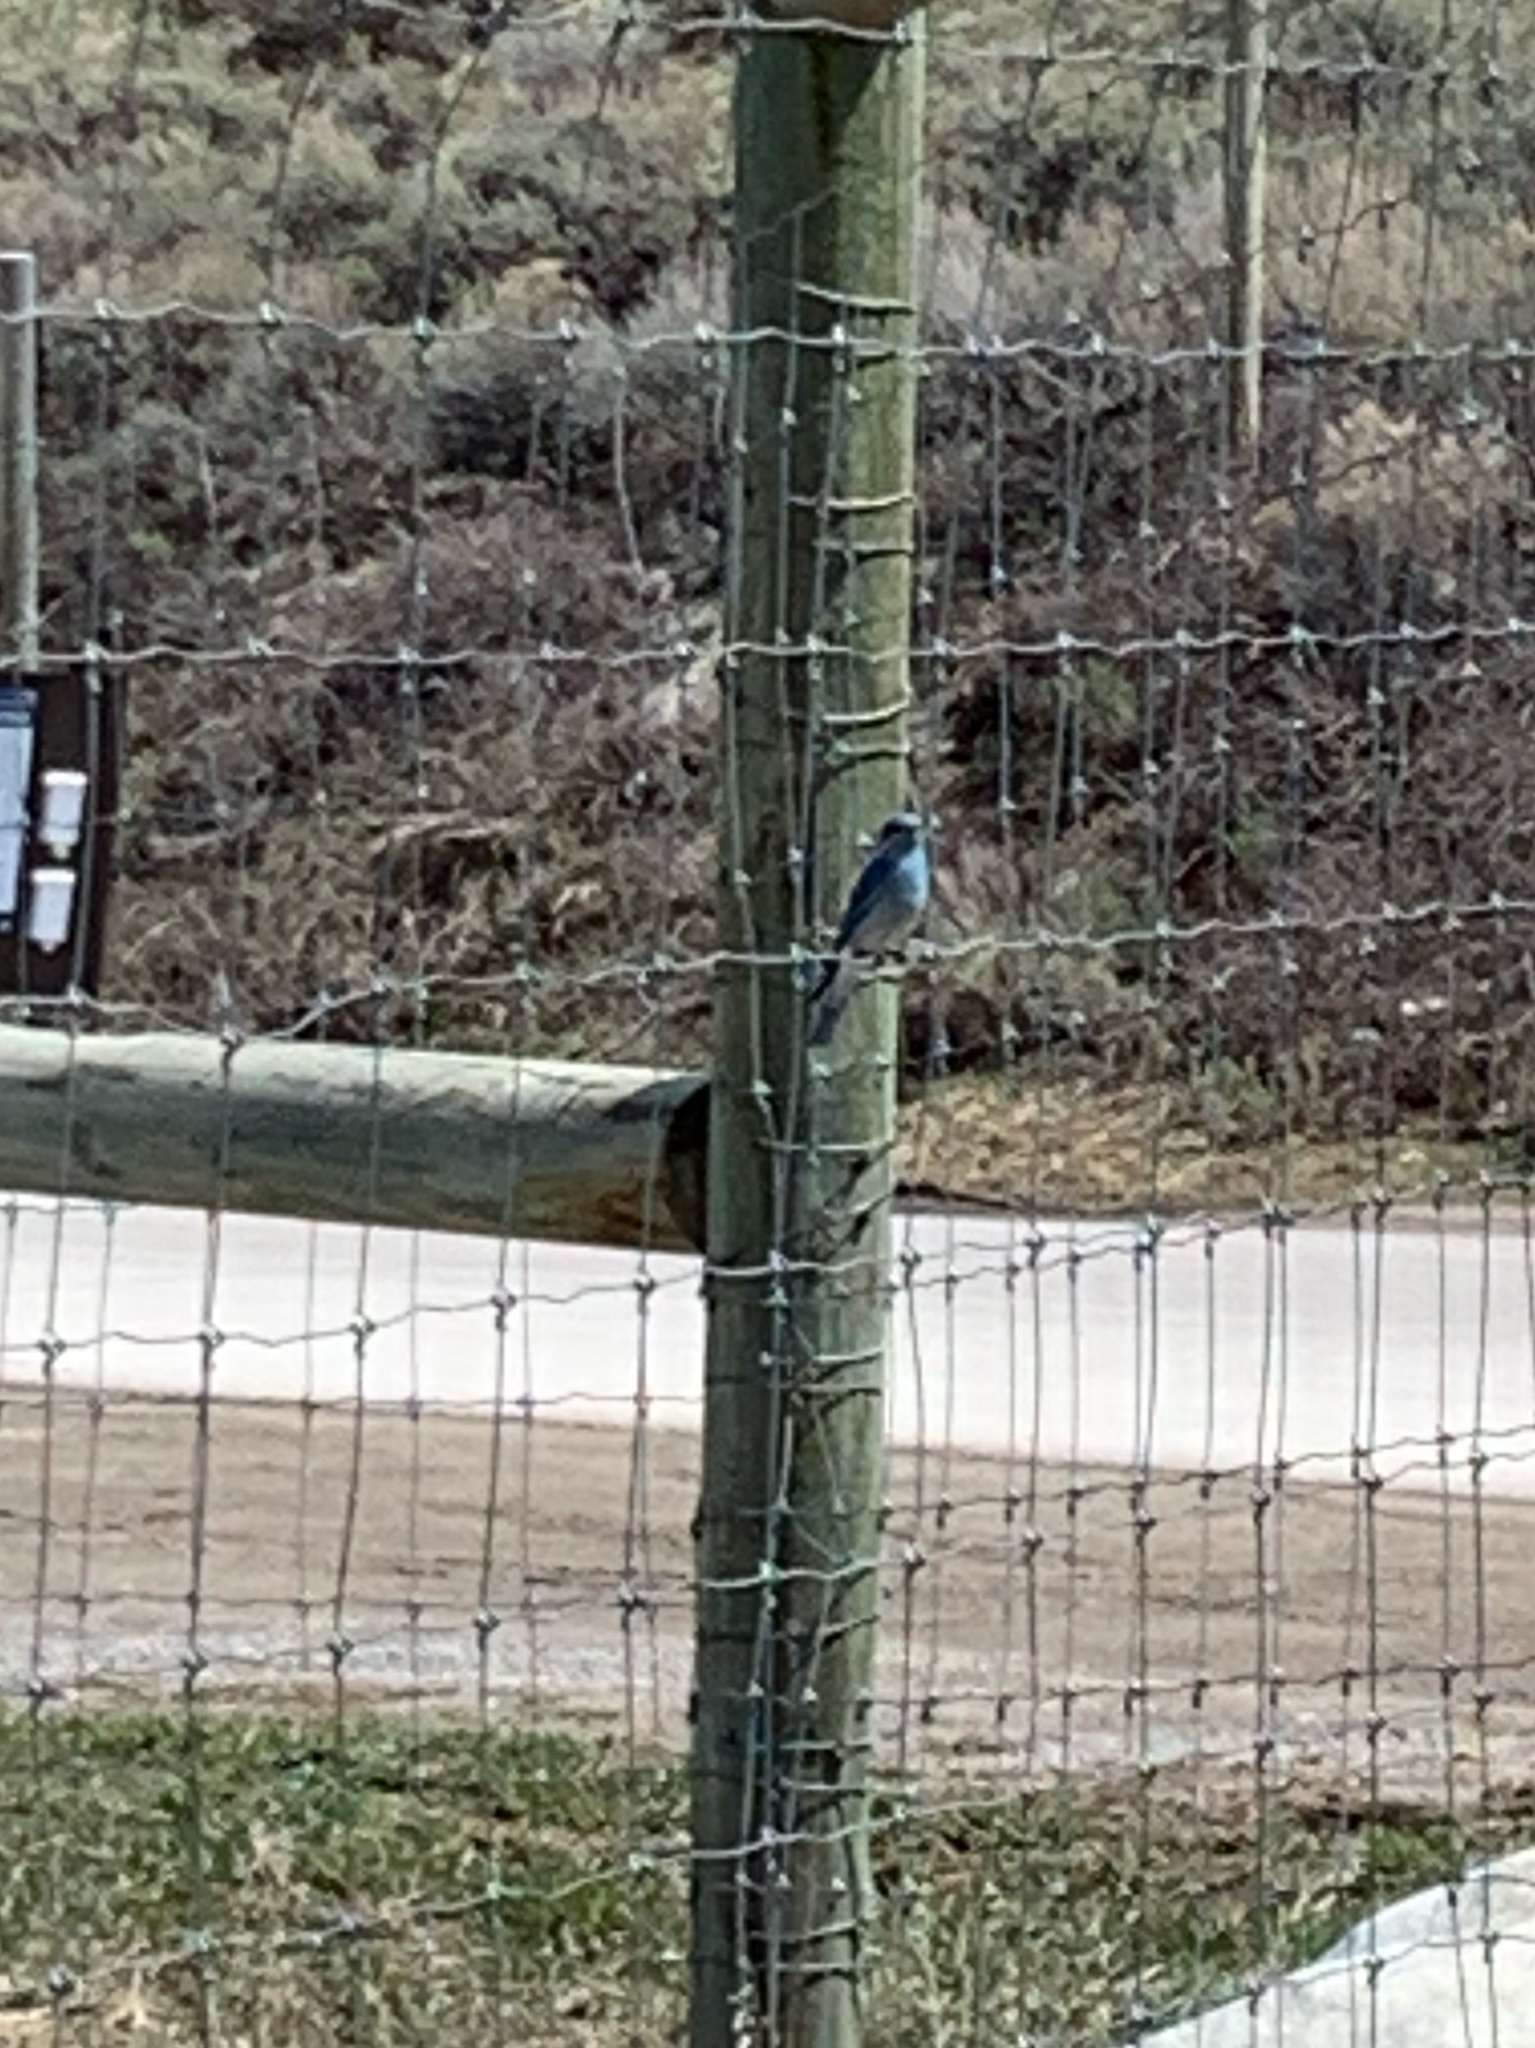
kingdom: Animalia
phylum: Chordata
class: Aves
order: Passeriformes
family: Turdidae
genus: Sialia
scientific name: Sialia currucoides
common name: Mountain bluebird
